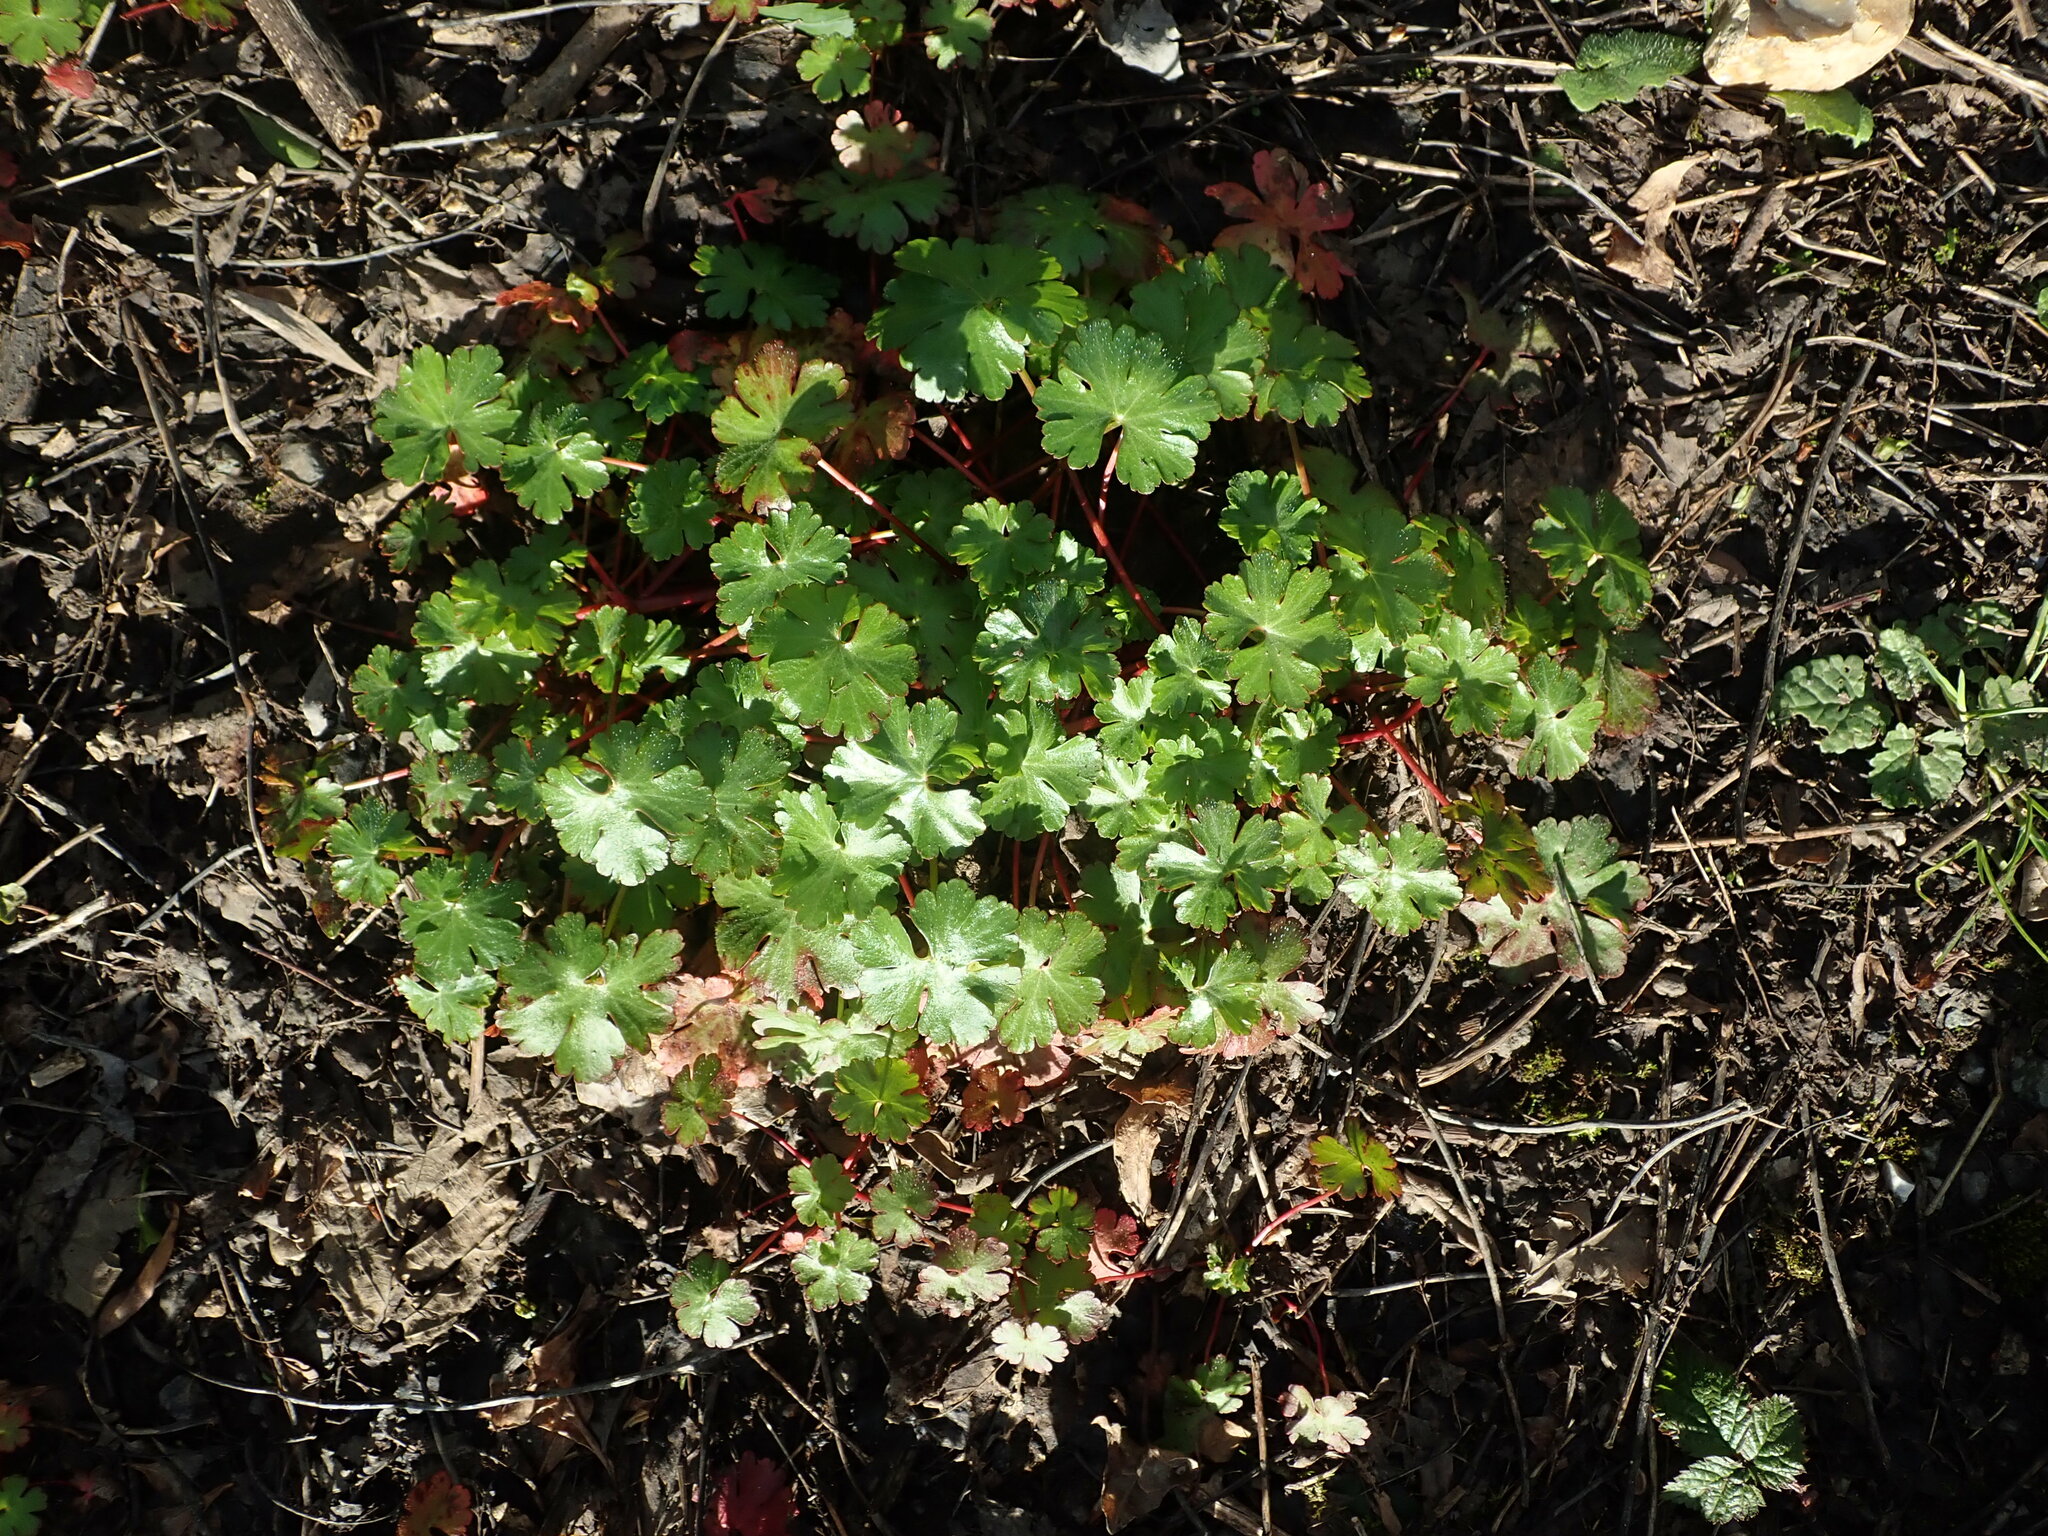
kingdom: Plantae
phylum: Tracheophyta
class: Magnoliopsida
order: Geraniales
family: Geraniaceae
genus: Geranium
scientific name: Geranium lucidum
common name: Shining crane's-bill
